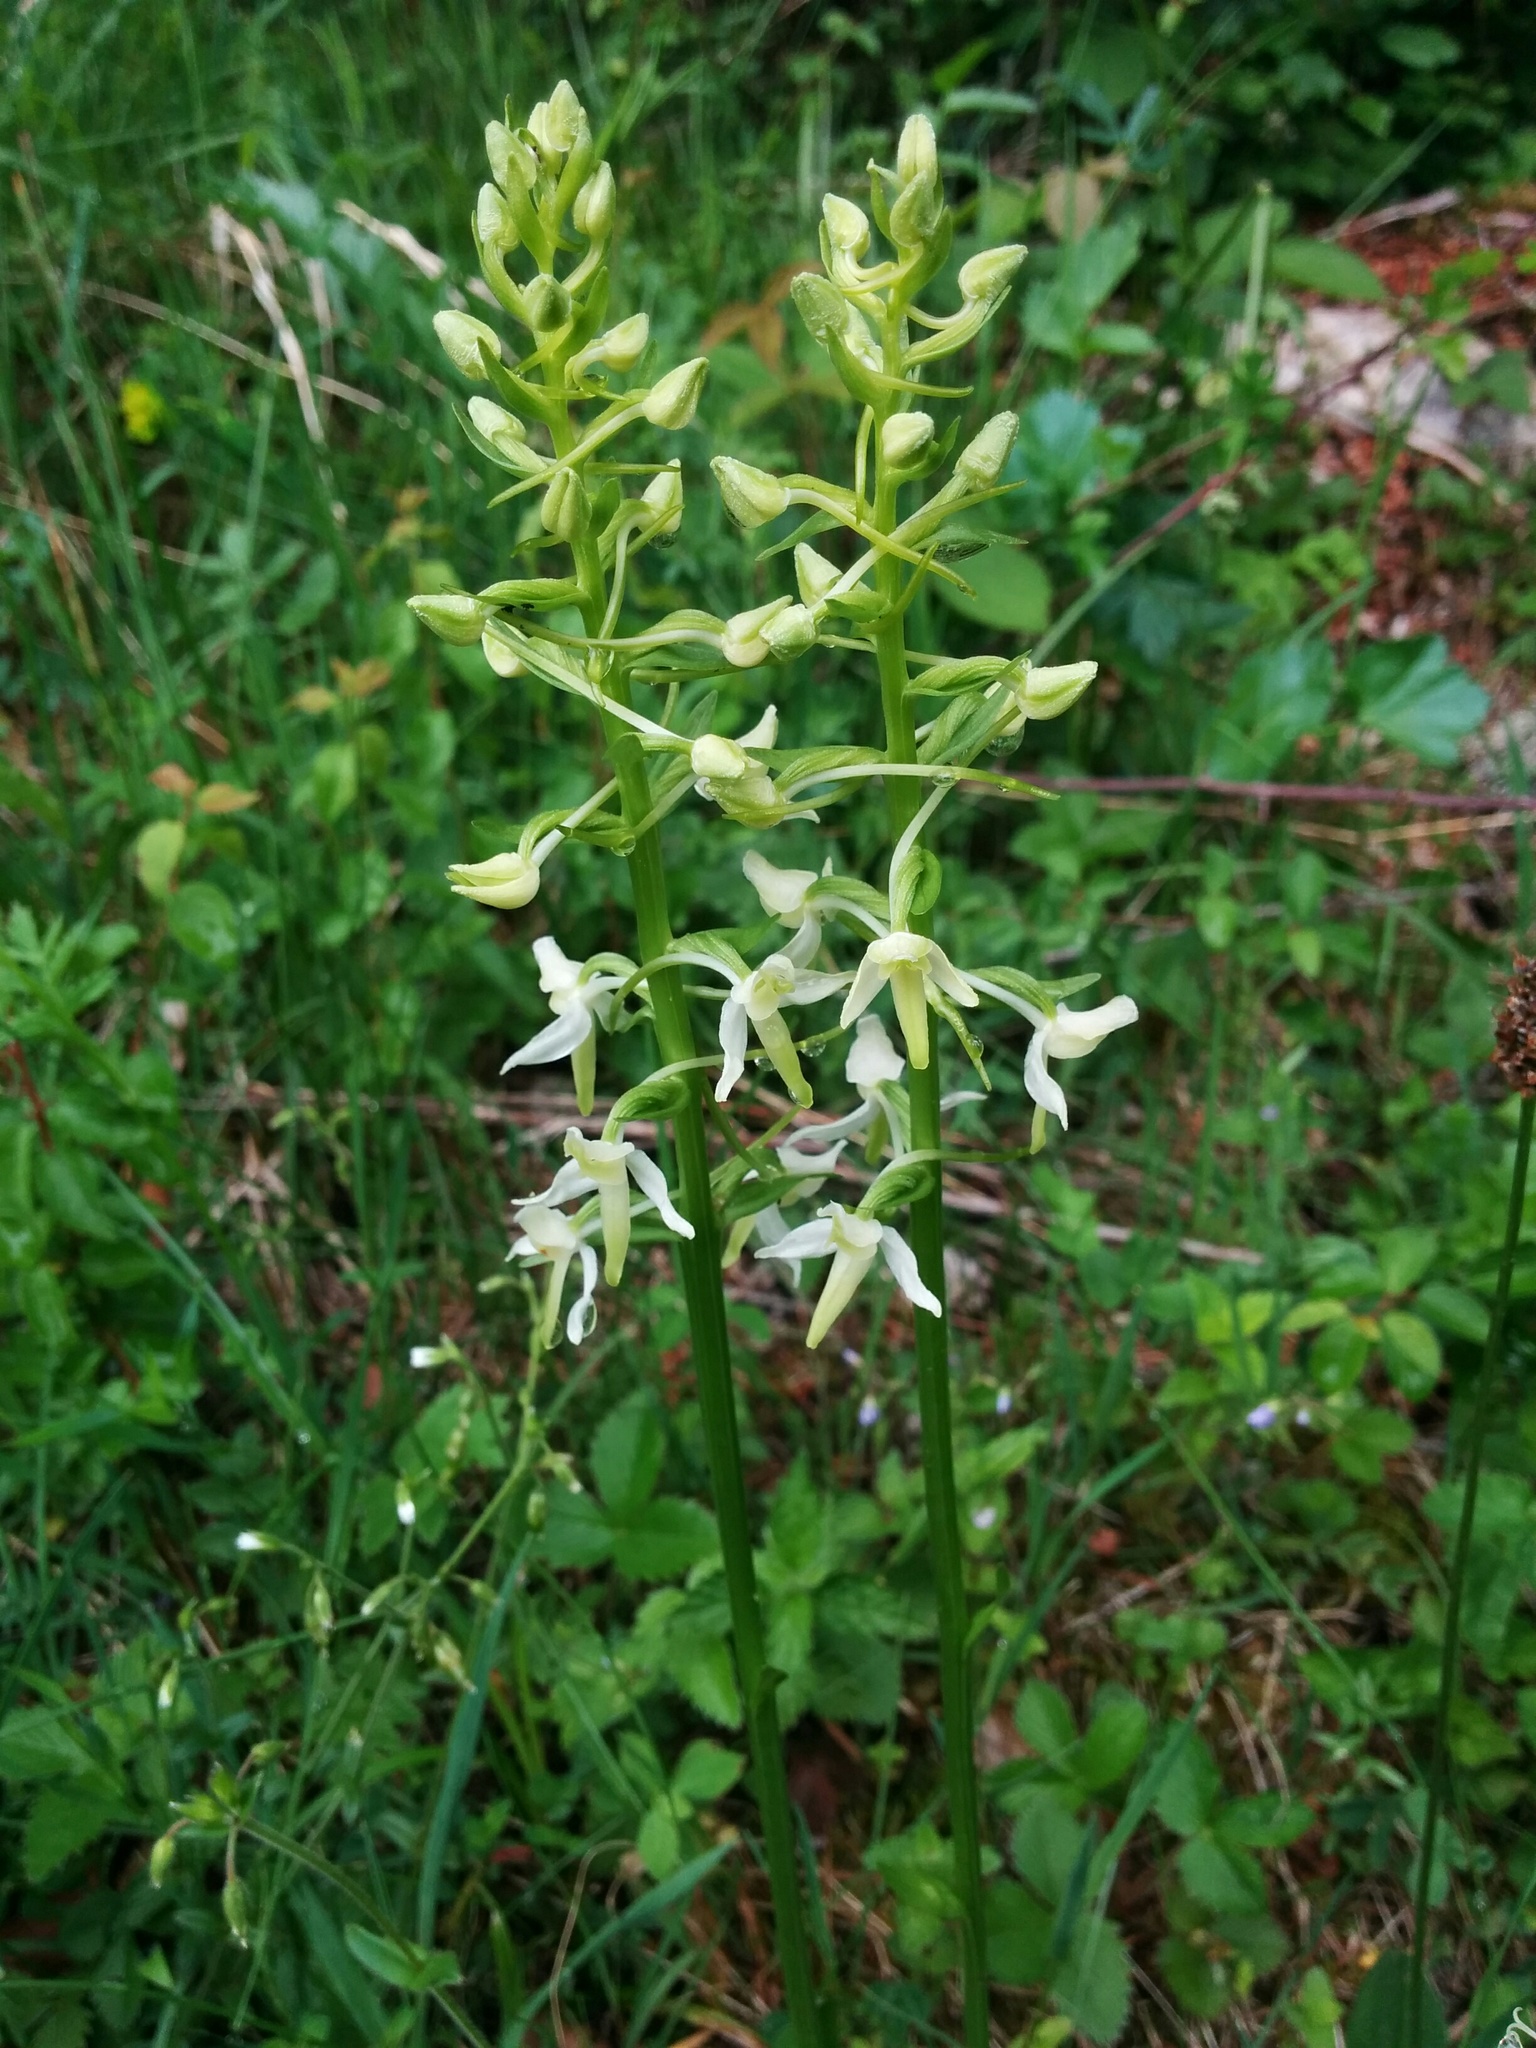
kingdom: Plantae
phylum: Tracheophyta
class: Liliopsida
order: Asparagales
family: Orchidaceae
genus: Platanthera
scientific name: Platanthera bifolia
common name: Lesser butterfly-orchid
